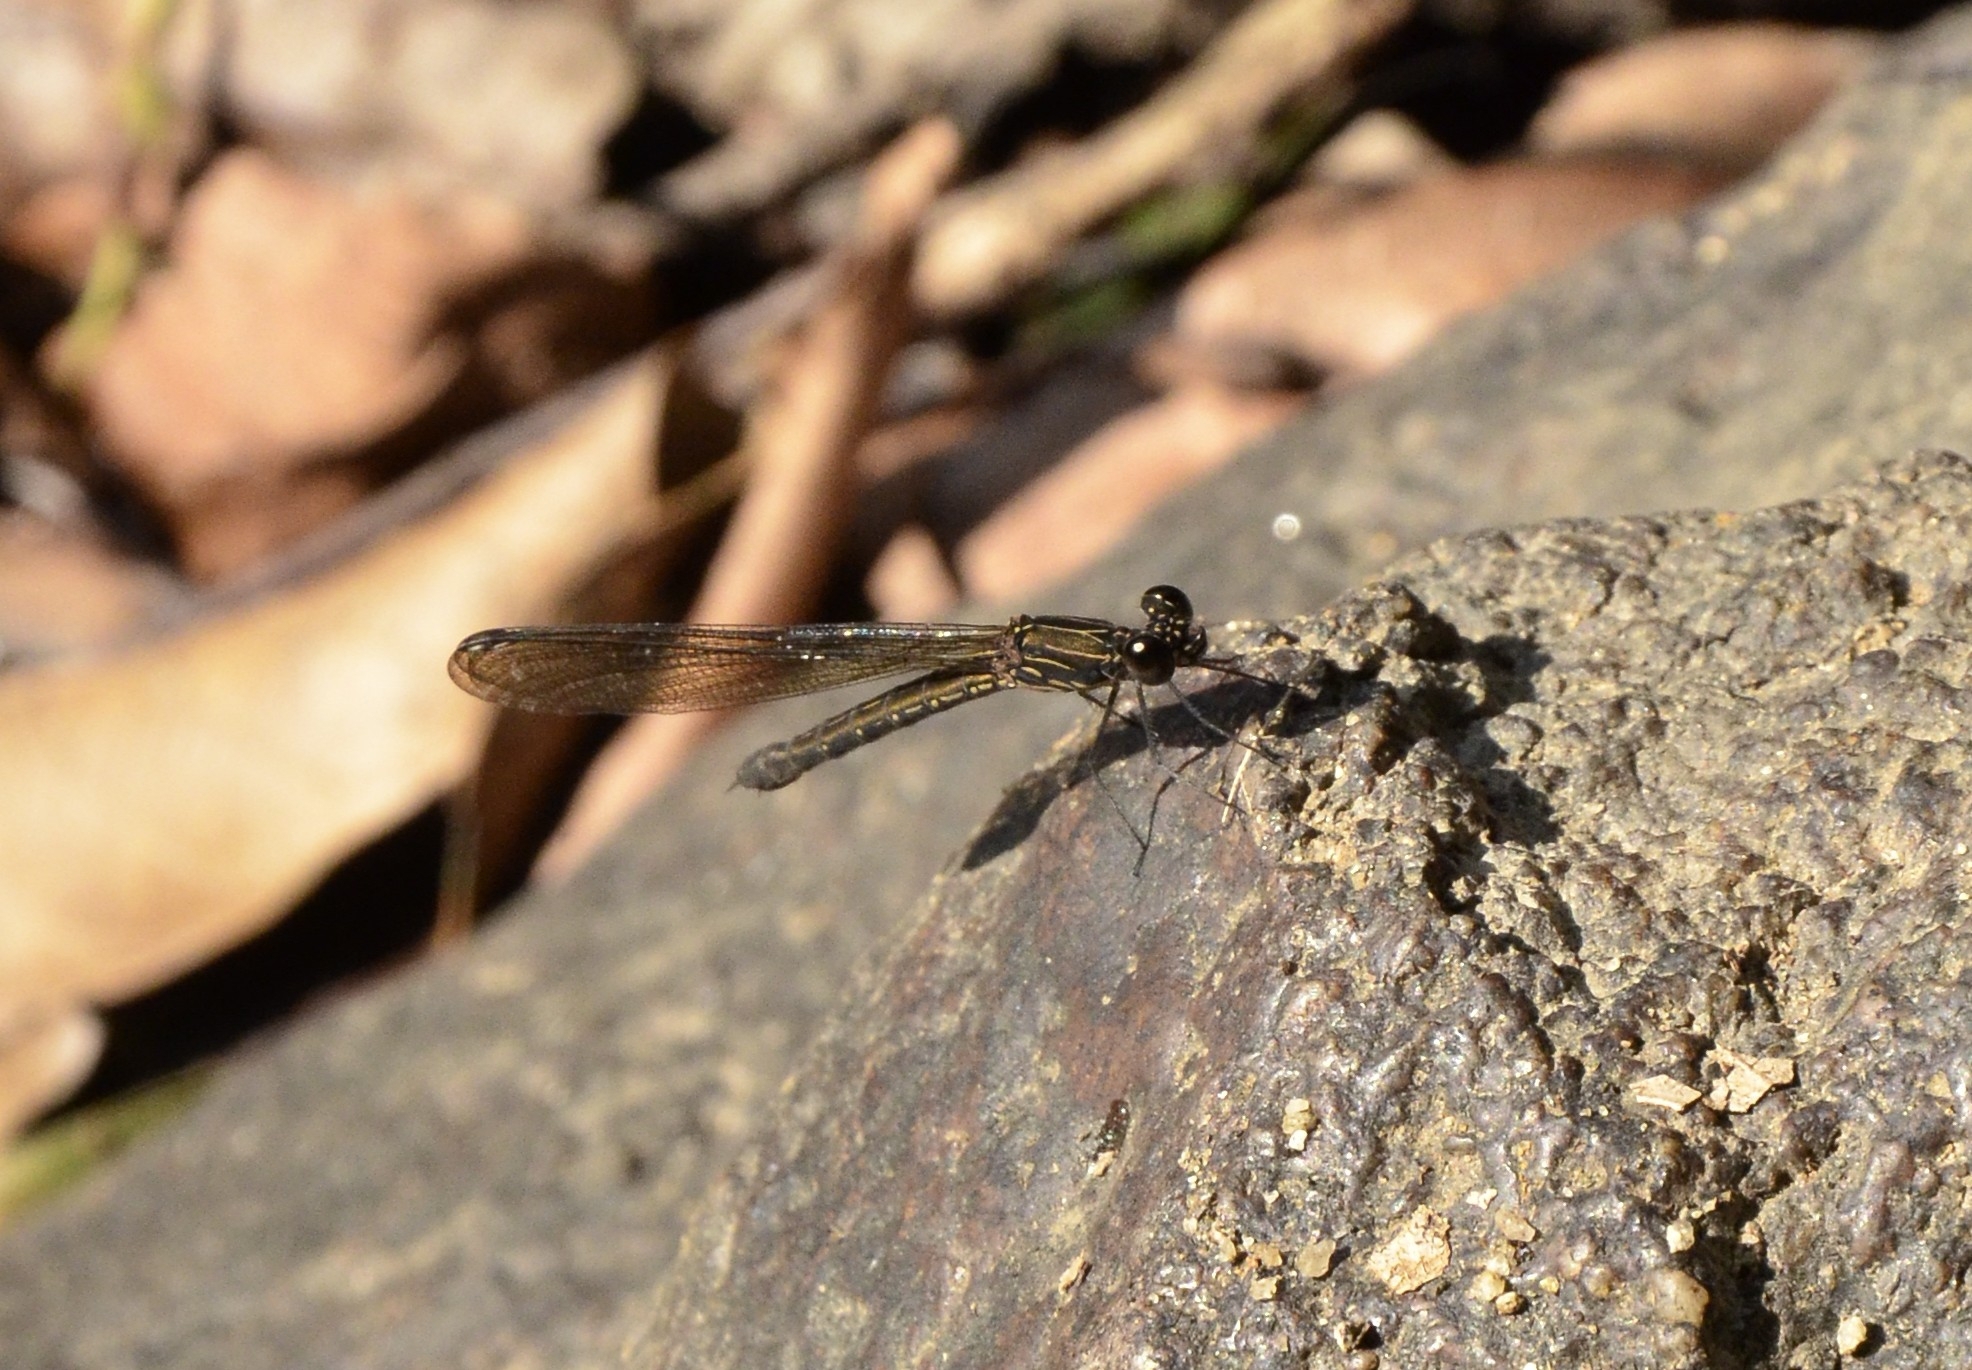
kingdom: Animalia
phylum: Arthropoda
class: Insecta
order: Odonata
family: Chlorocyphidae
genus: Heliocypha
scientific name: Heliocypha bisignata
